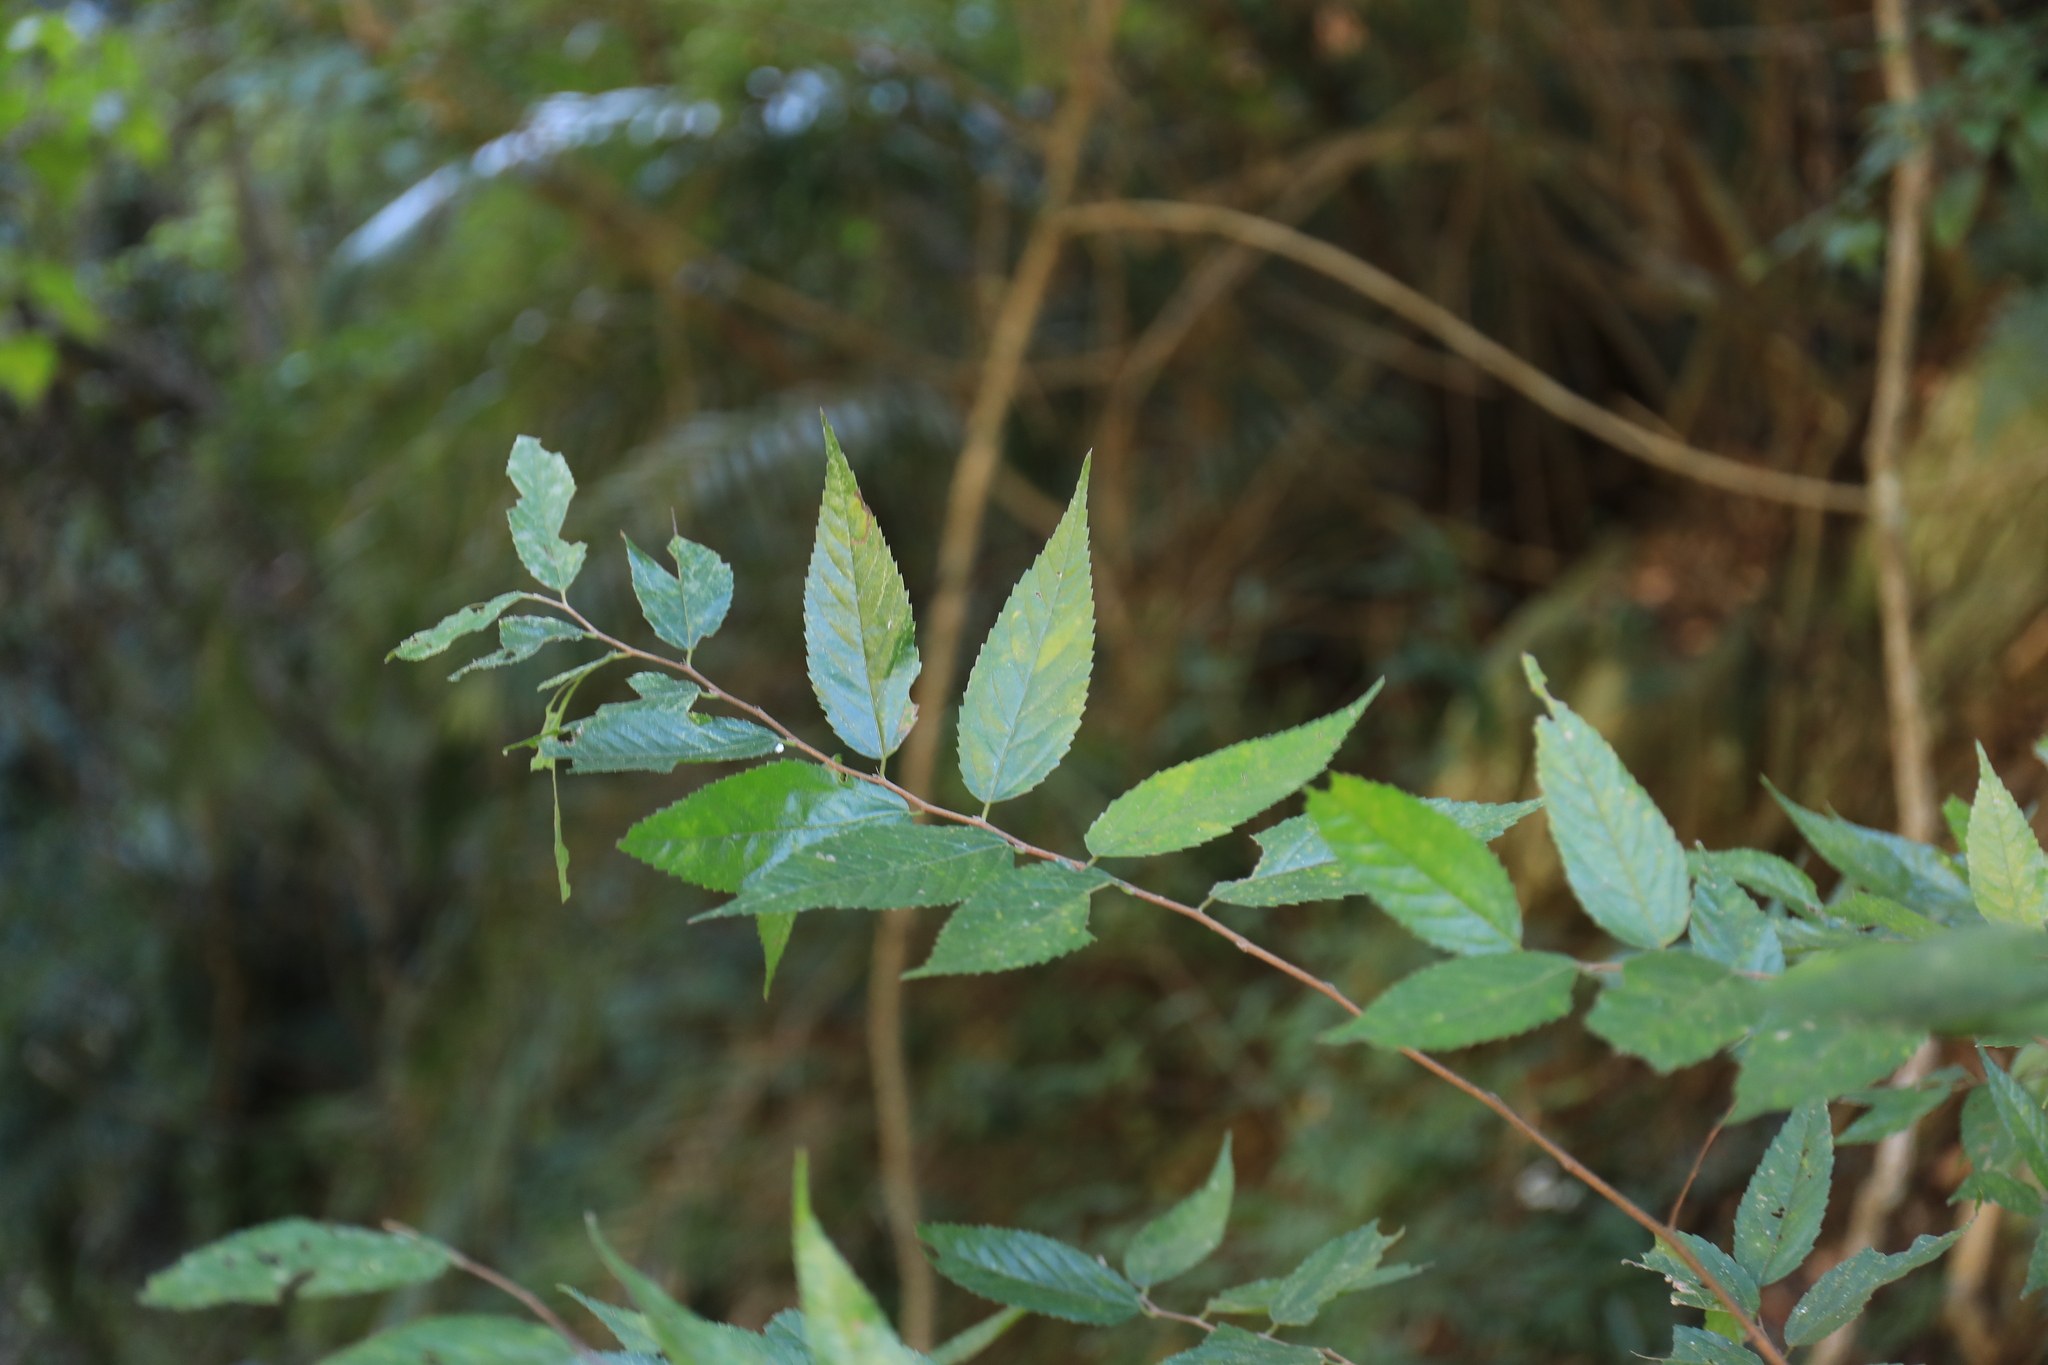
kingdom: Plantae
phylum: Tracheophyta
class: Magnoliopsida
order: Rosales
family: Cannabaceae
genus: Aphananthe
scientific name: Aphananthe aspera
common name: Mukutree
